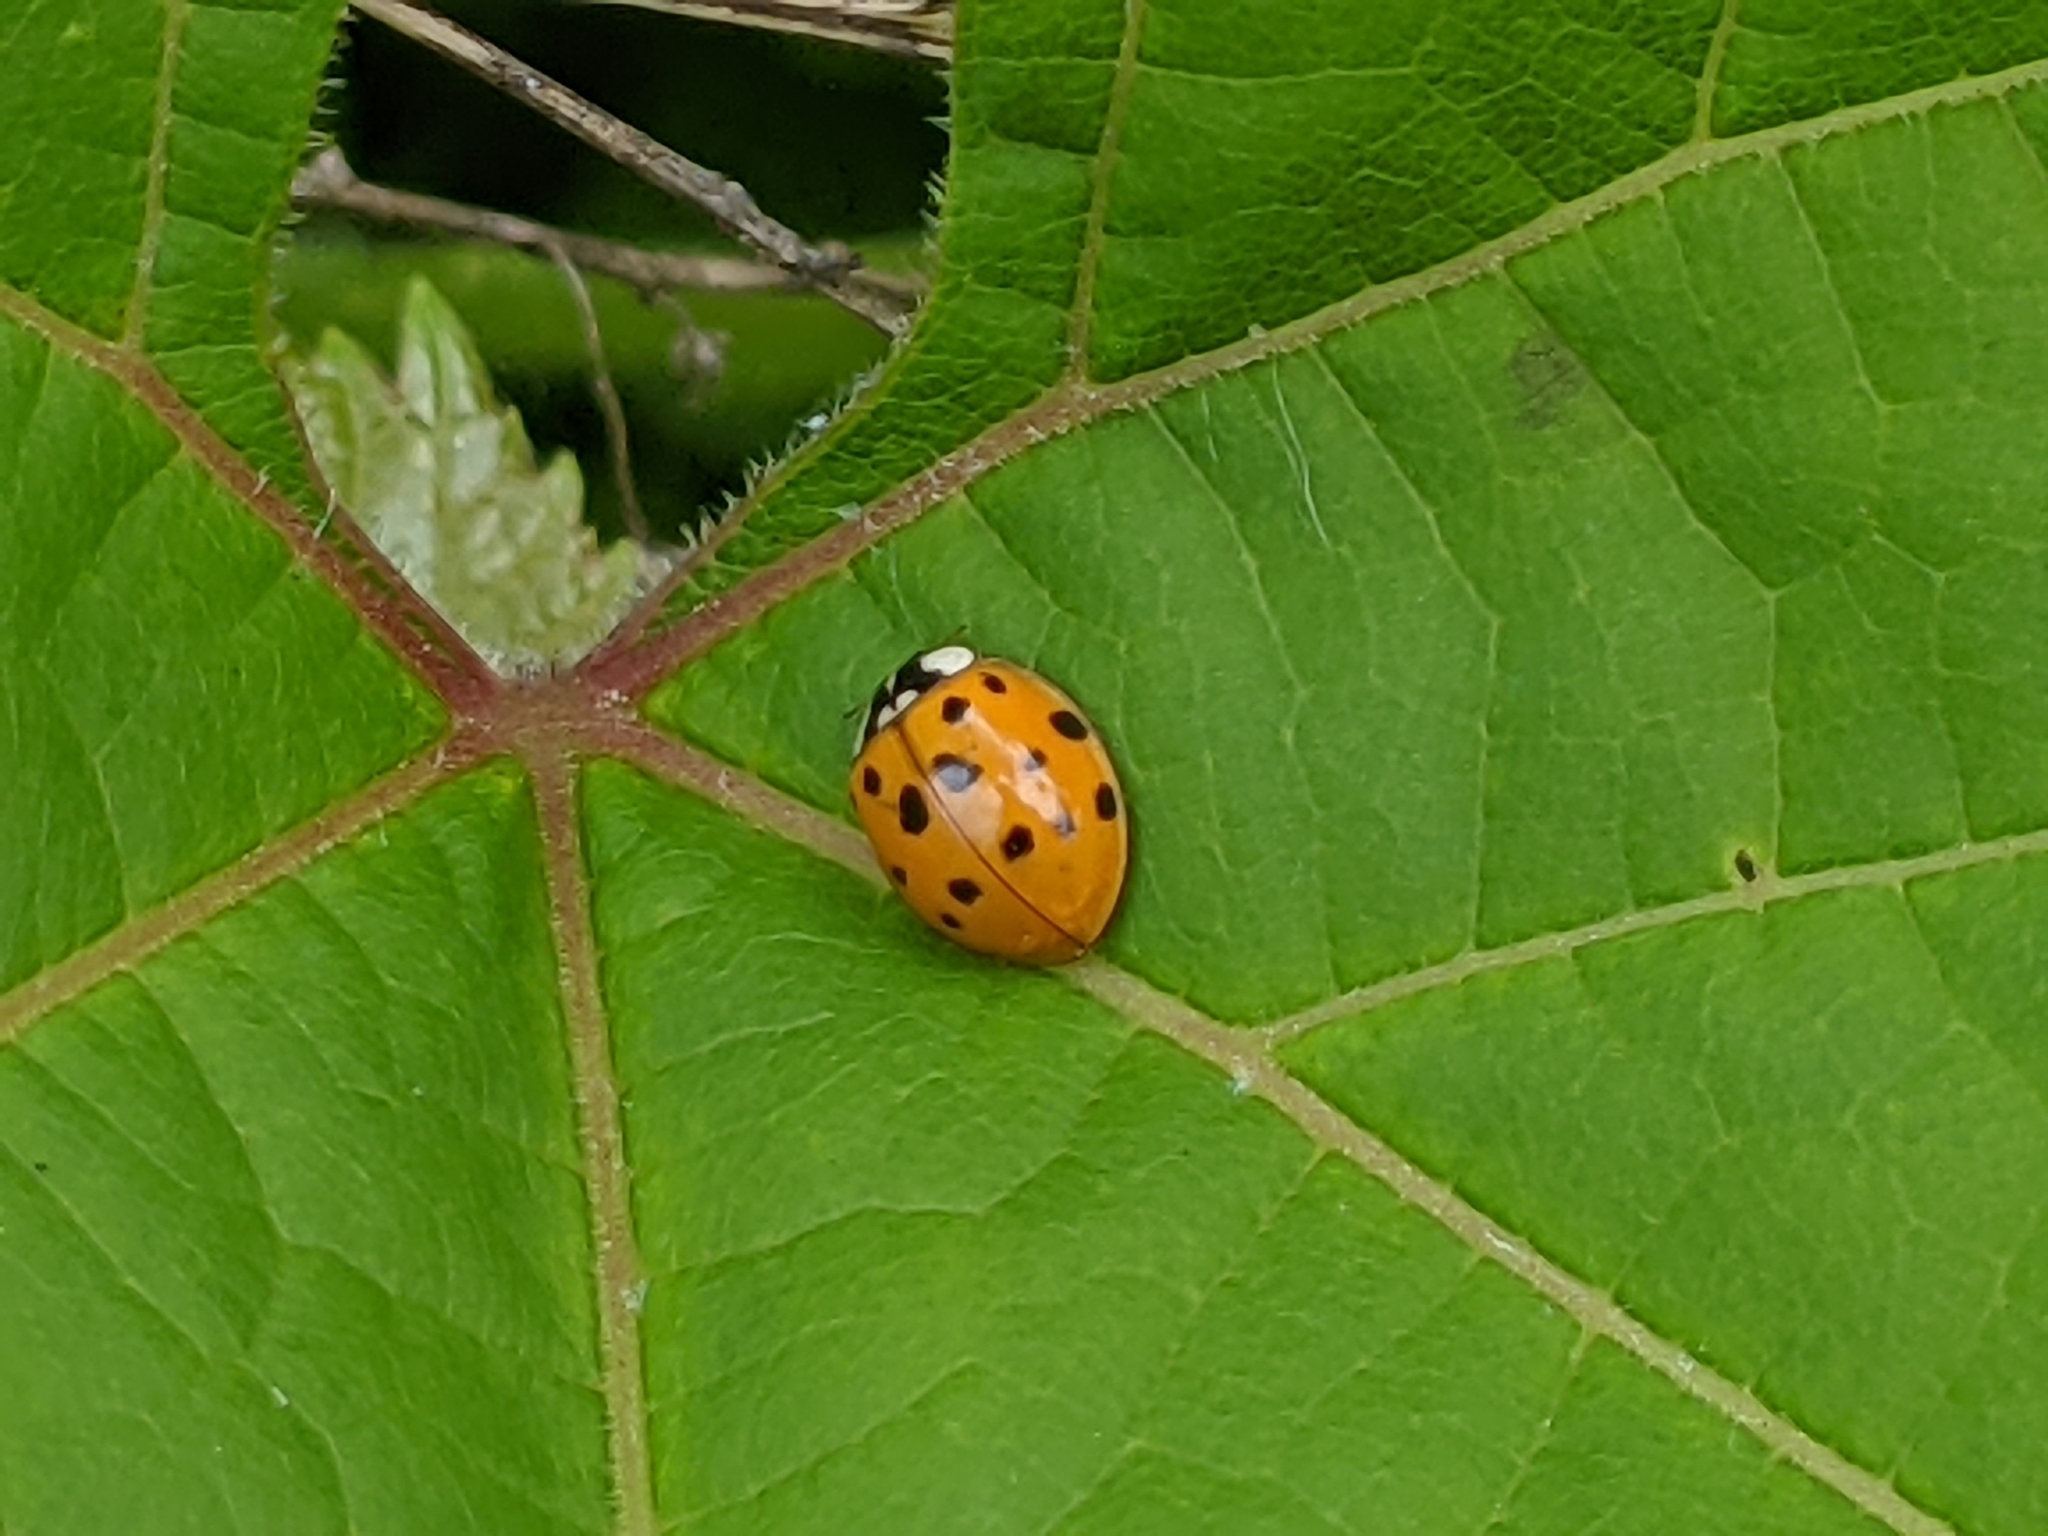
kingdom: Animalia
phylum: Arthropoda
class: Insecta
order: Coleoptera
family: Coccinellidae
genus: Harmonia
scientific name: Harmonia axyridis
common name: Harlequin ladybird
